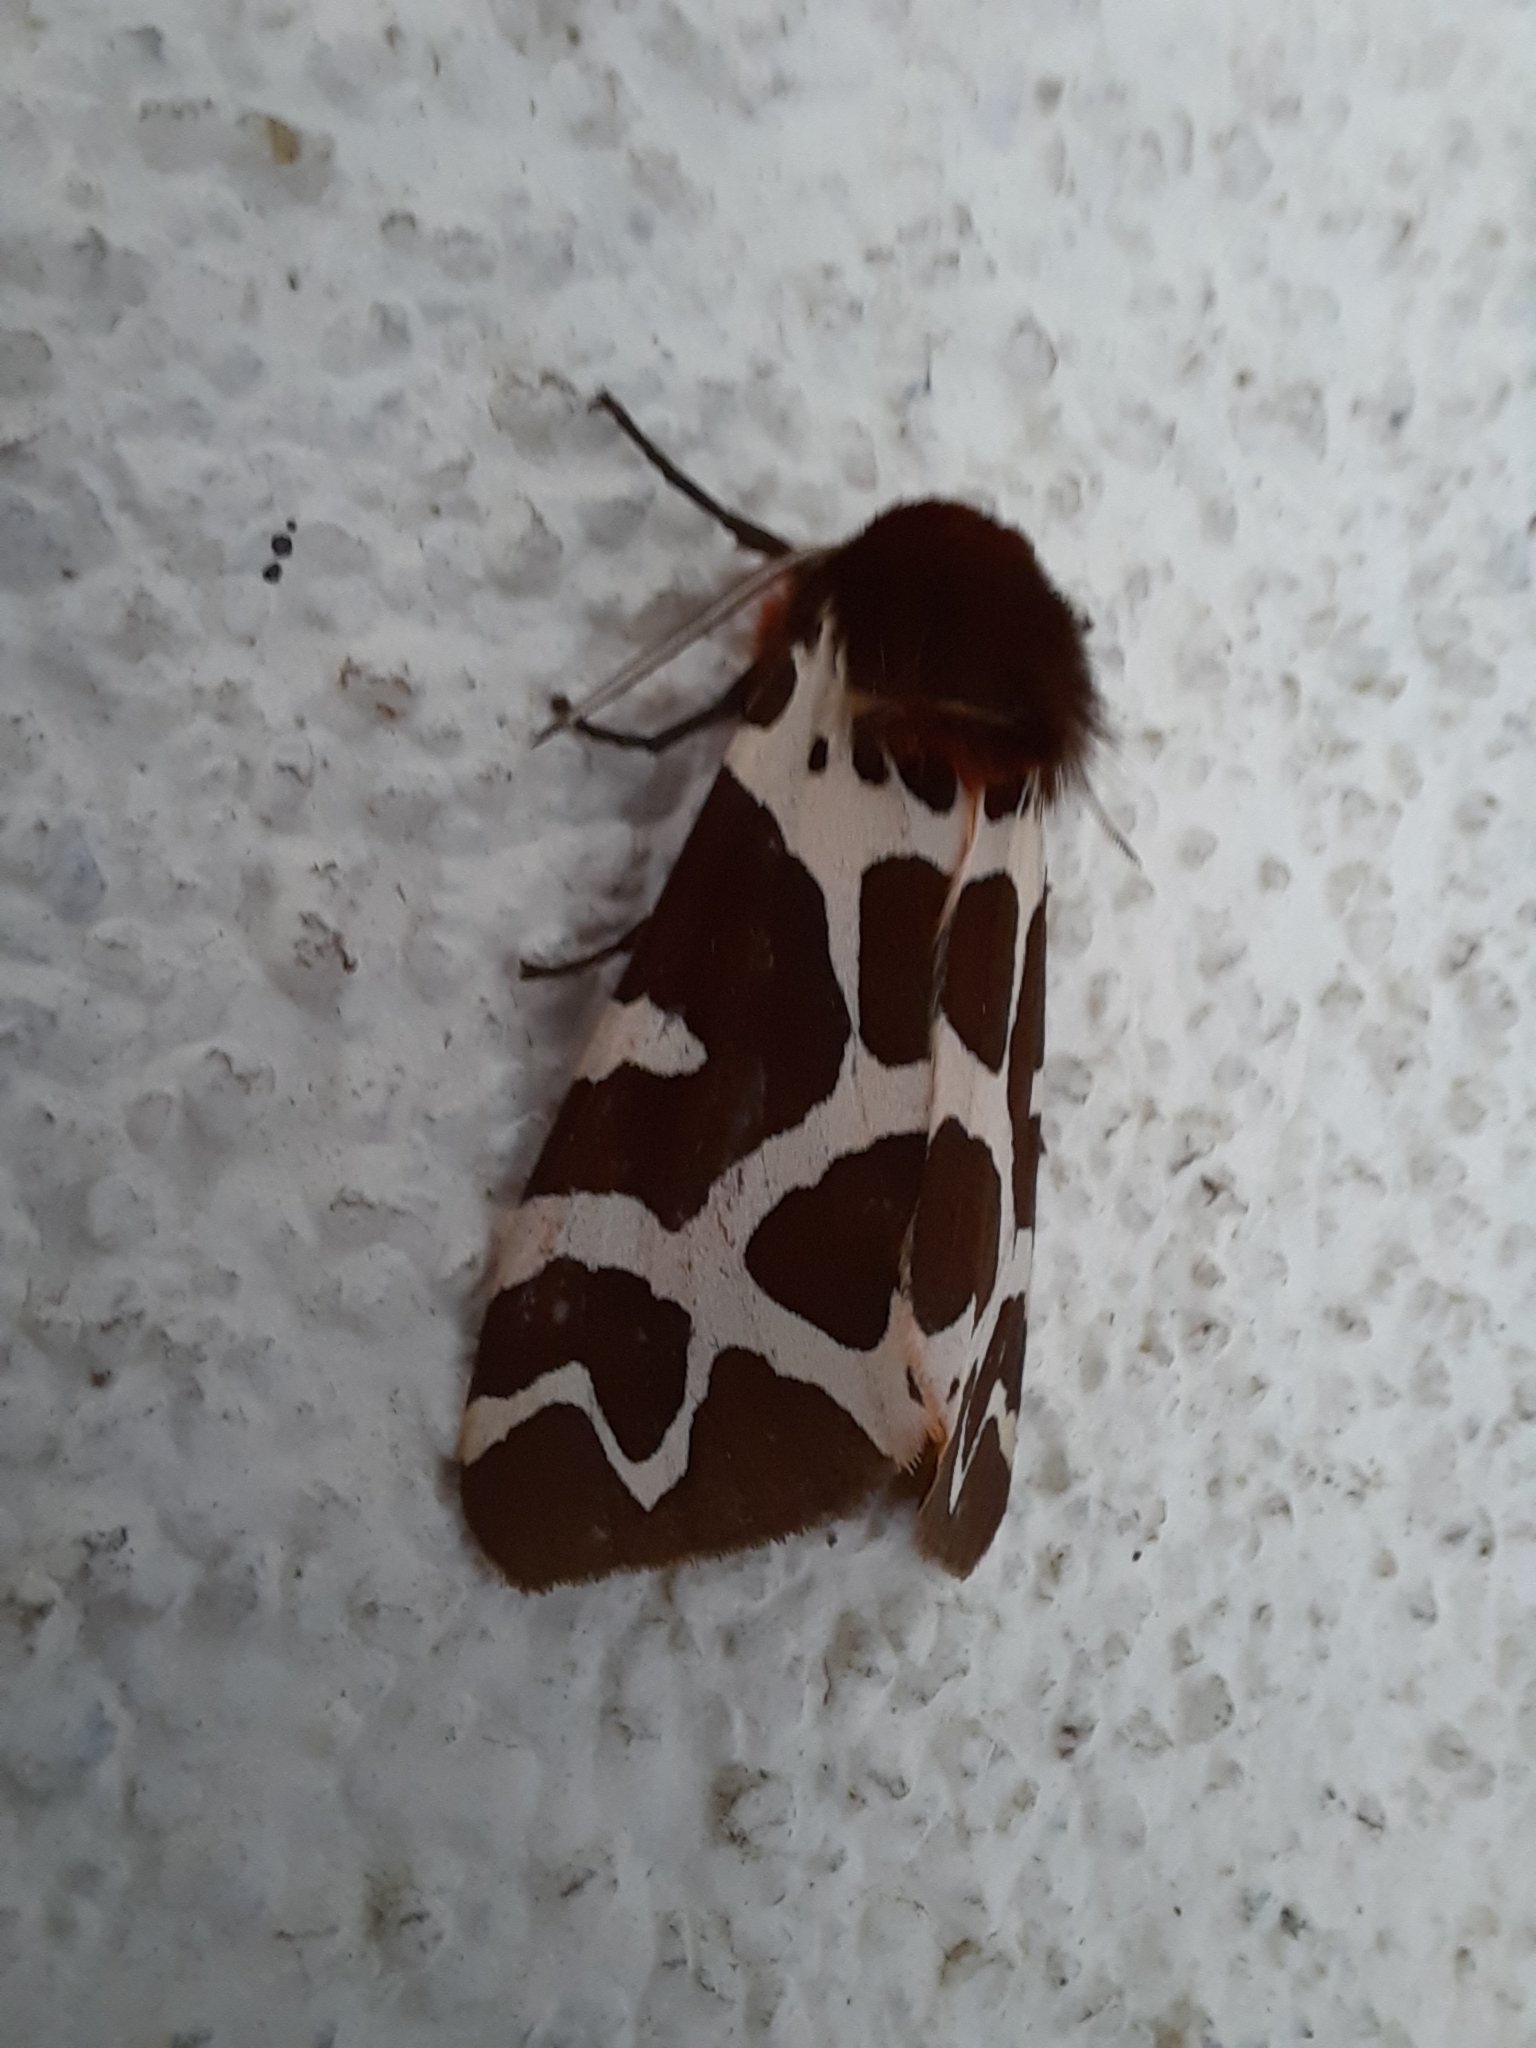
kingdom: Animalia
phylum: Arthropoda
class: Insecta
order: Lepidoptera
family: Erebidae
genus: Arctia
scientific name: Arctia caja
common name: Garden tiger
